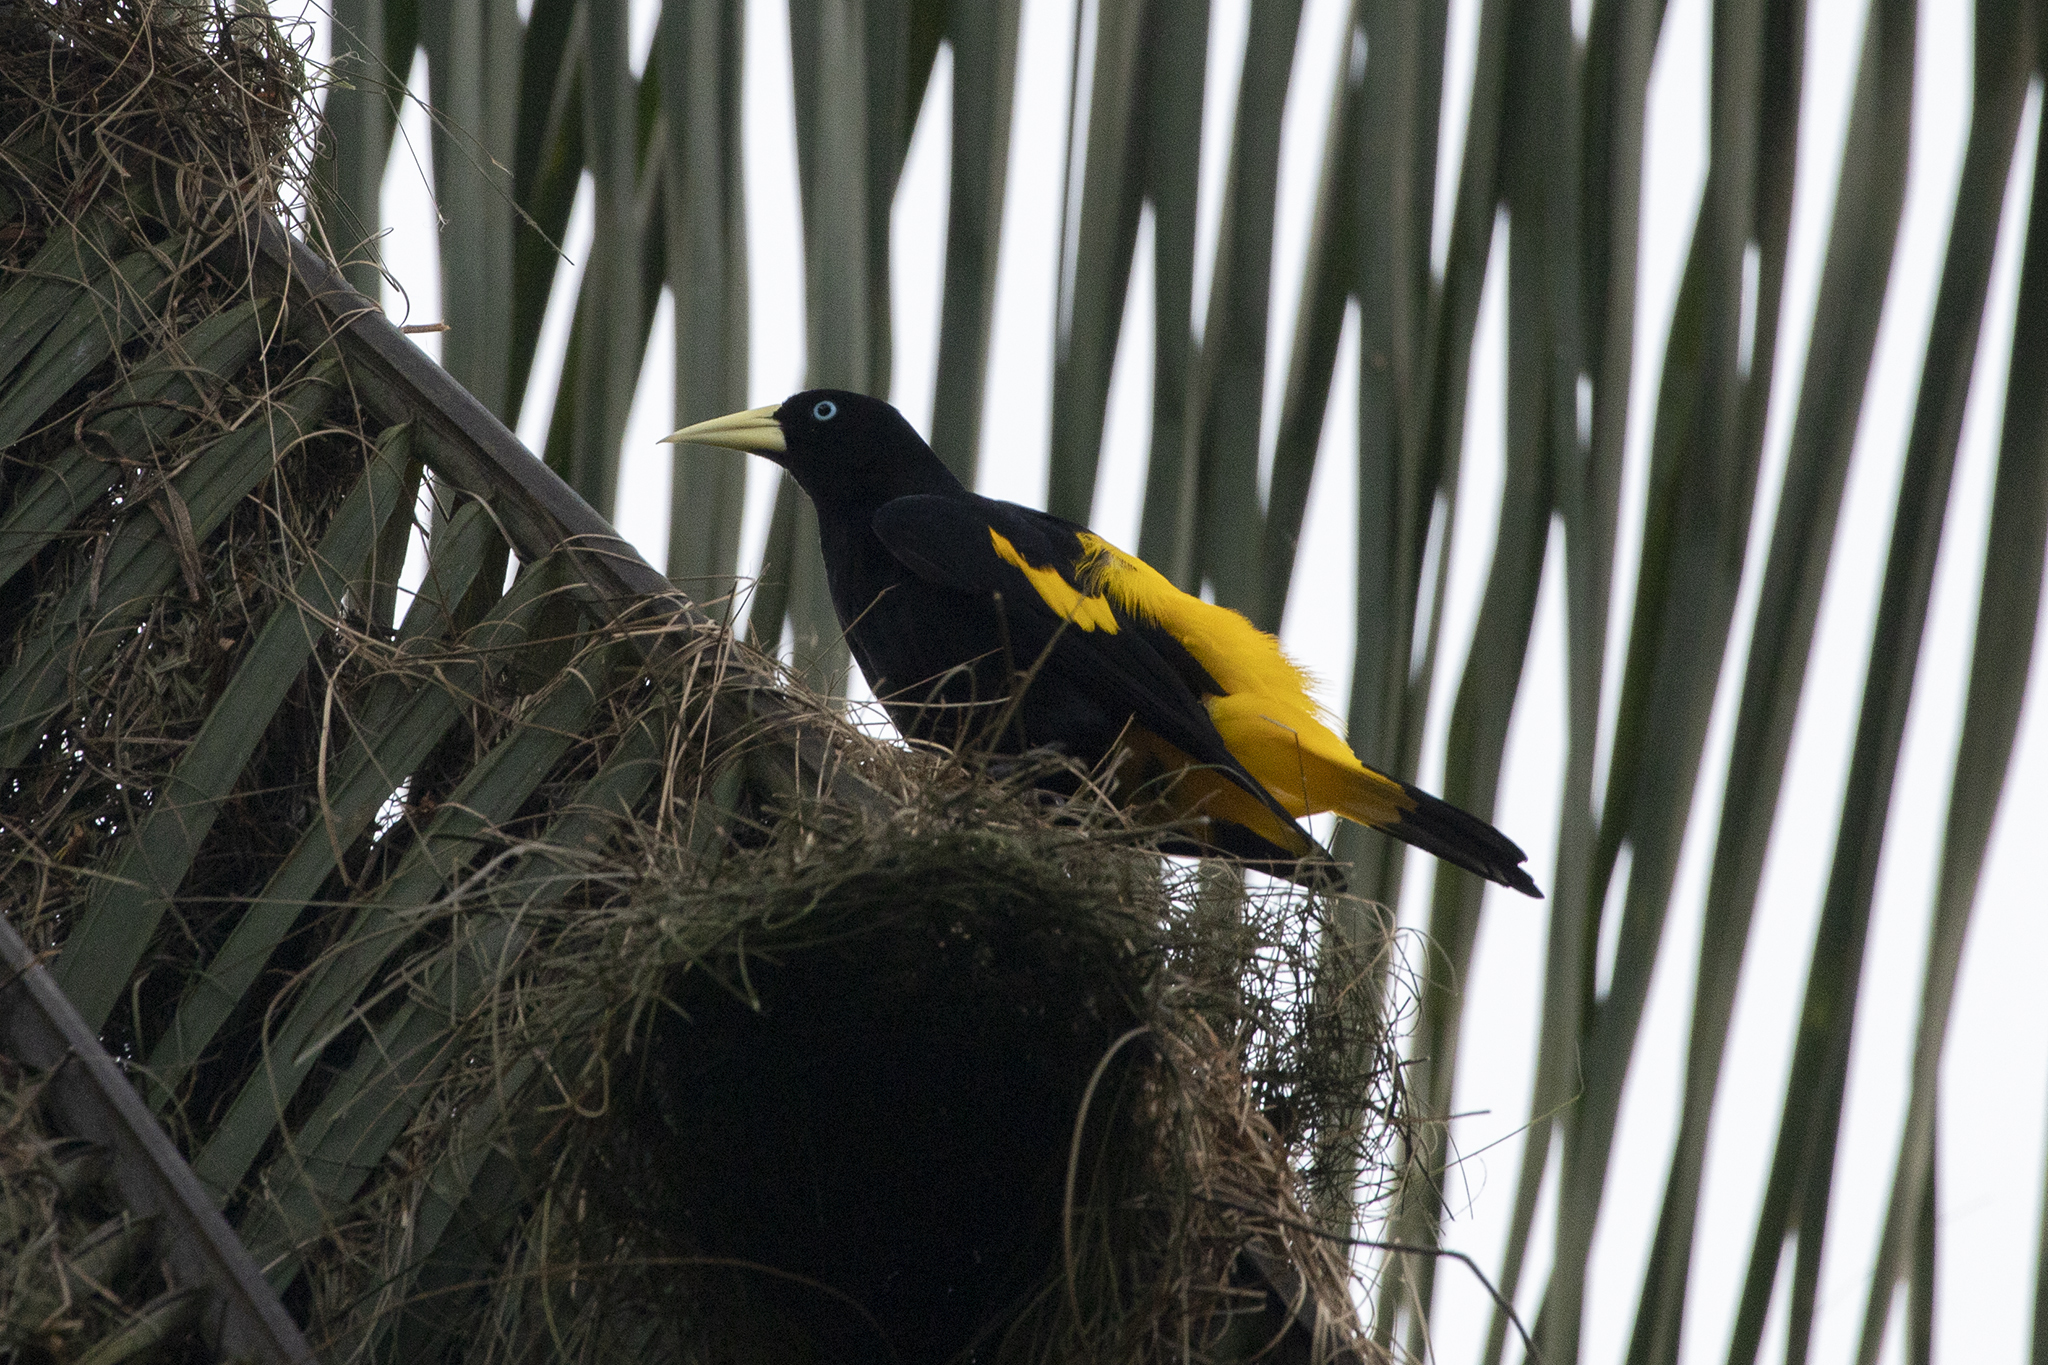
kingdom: Animalia
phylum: Chordata
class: Aves
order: Passeriformes
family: Icteridae
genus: Cacicus
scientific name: Cacicus cela
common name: Yellow-rumped cacique
